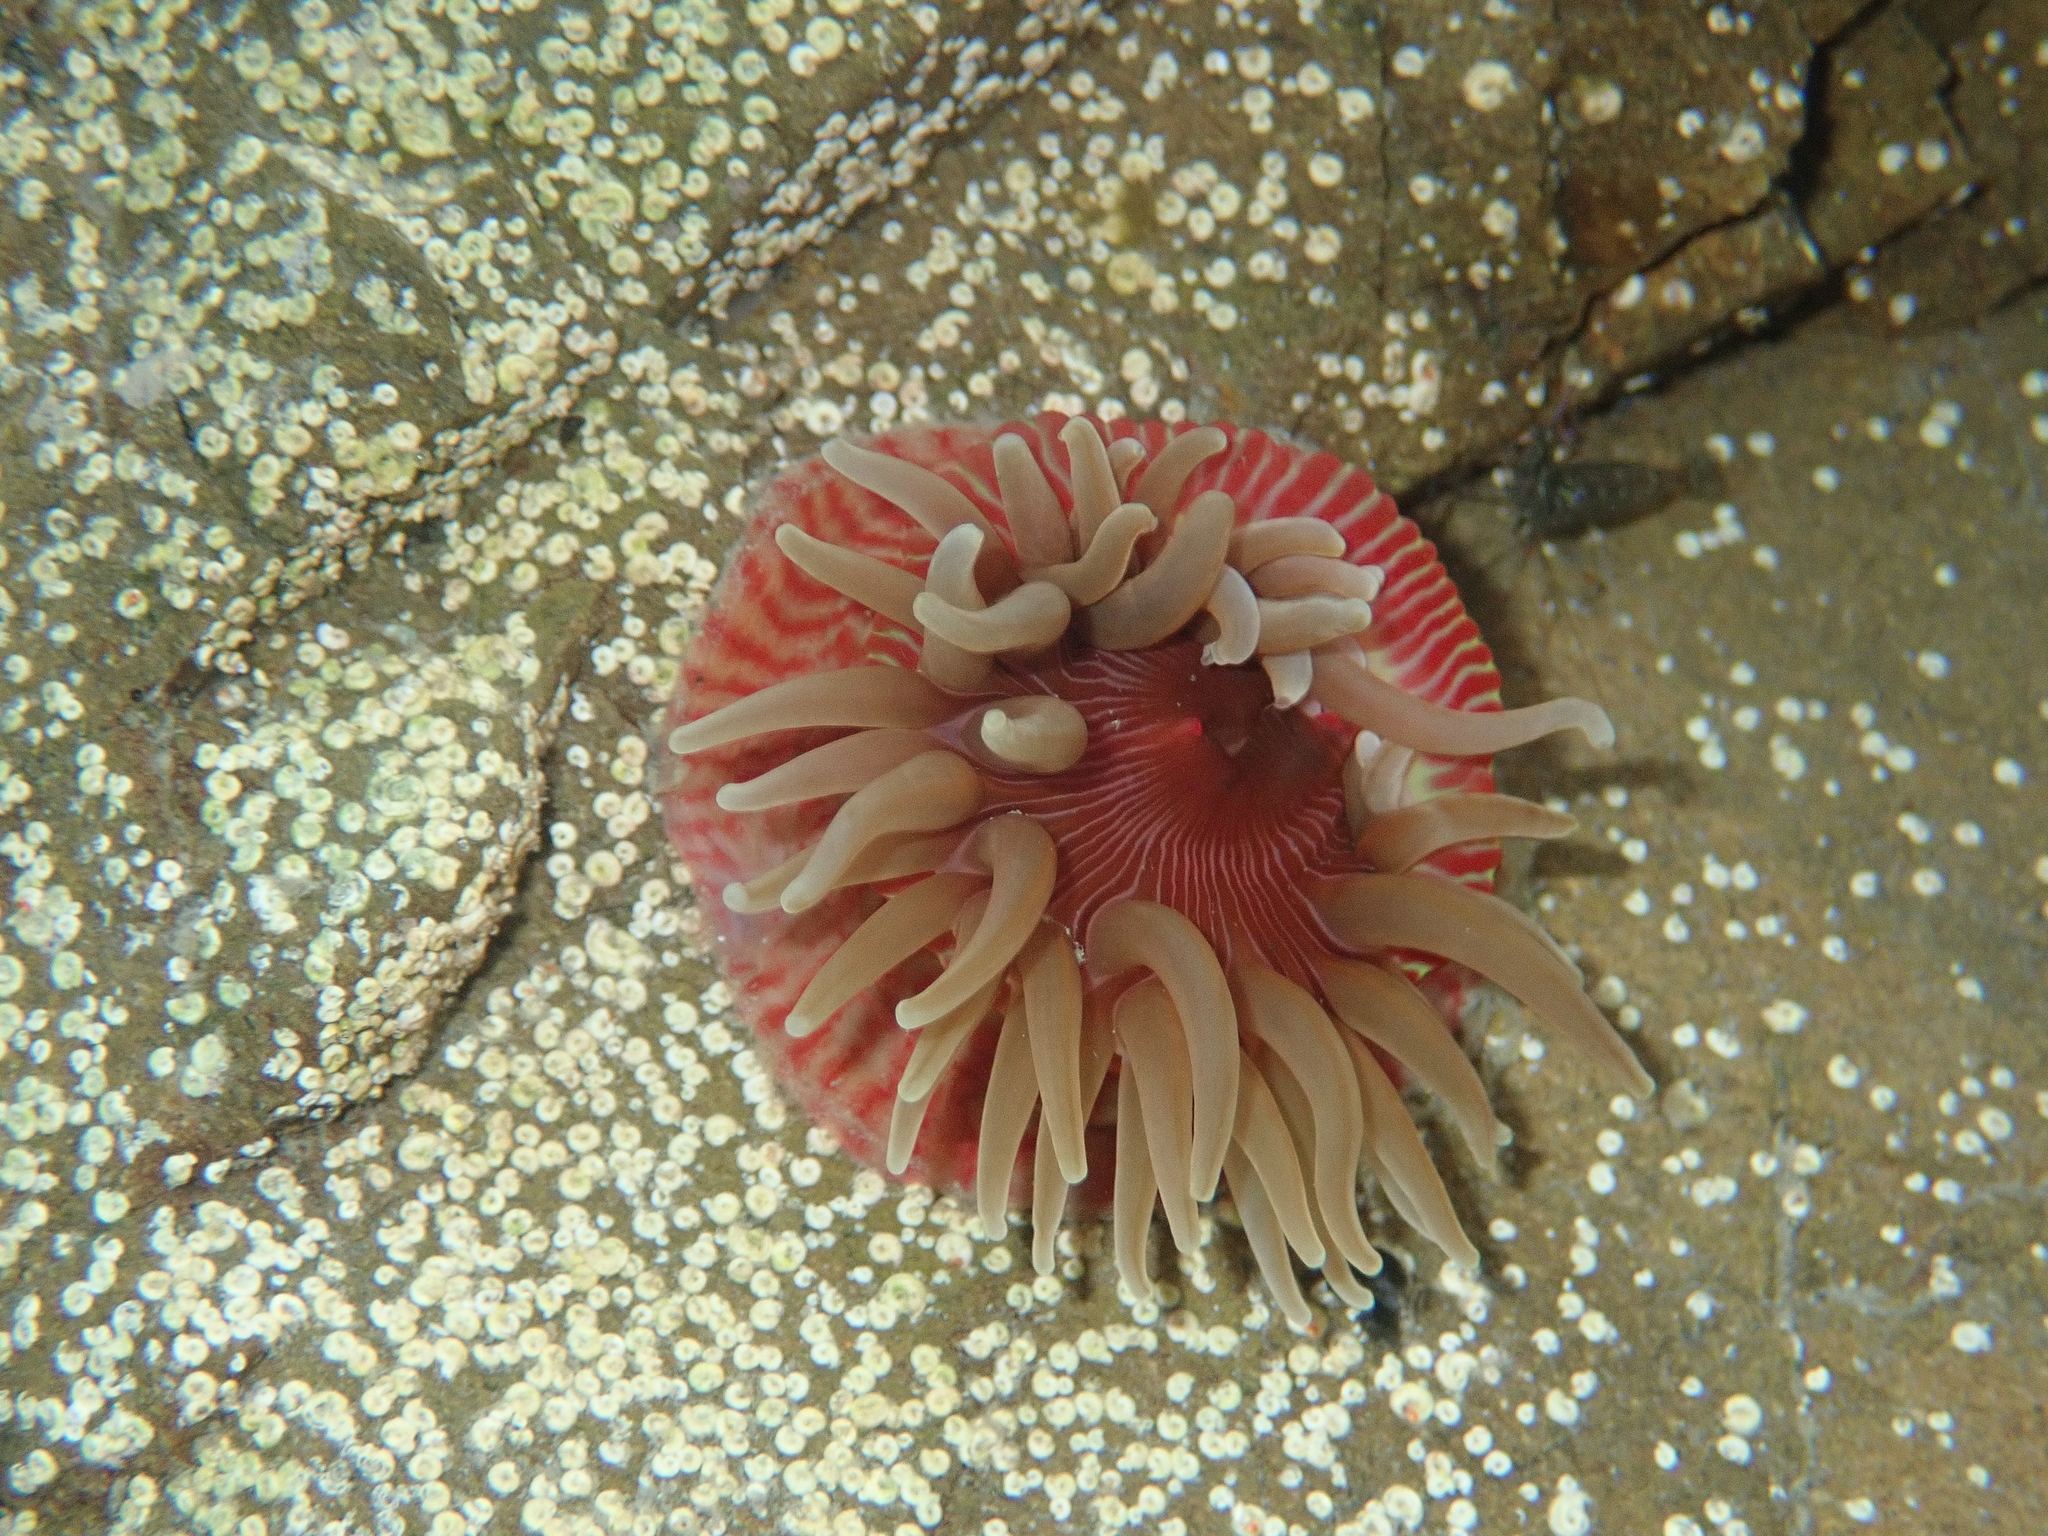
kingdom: Animalia
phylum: Cnidaria
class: Anthozoa
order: Actiniaria
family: Actiniidae
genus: Epiactis
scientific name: Epiactis thompsoni
